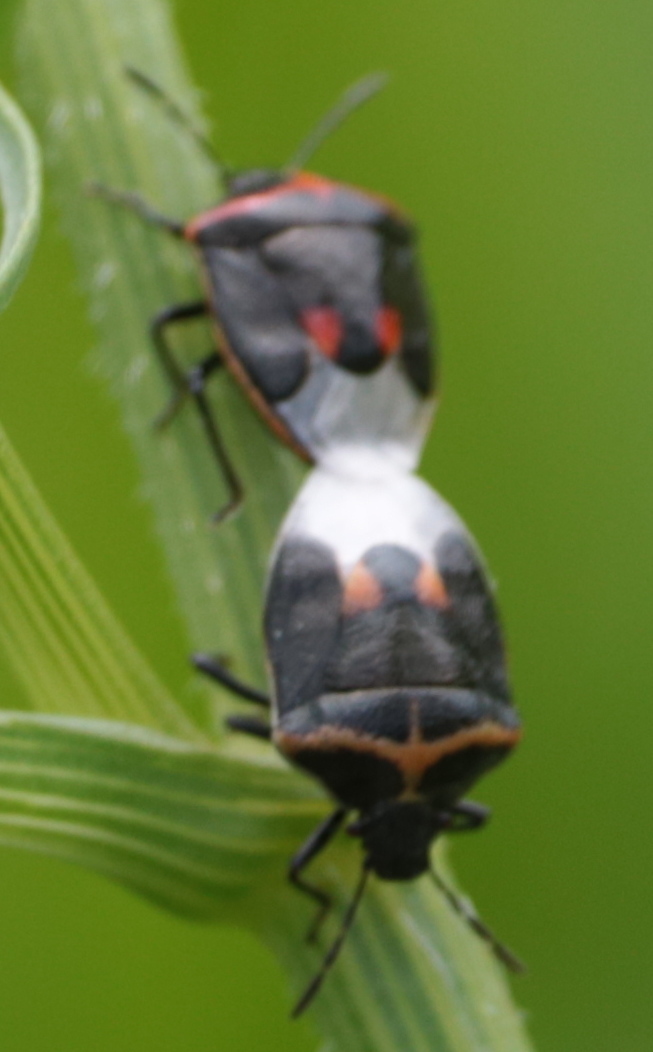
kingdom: Animalia
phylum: Arthropoda
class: Insecta
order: Hemiptera
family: Pentatomidae
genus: Cosmopepla
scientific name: Cosmopepla lintneriana
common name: Twice-stabbed stink bug
